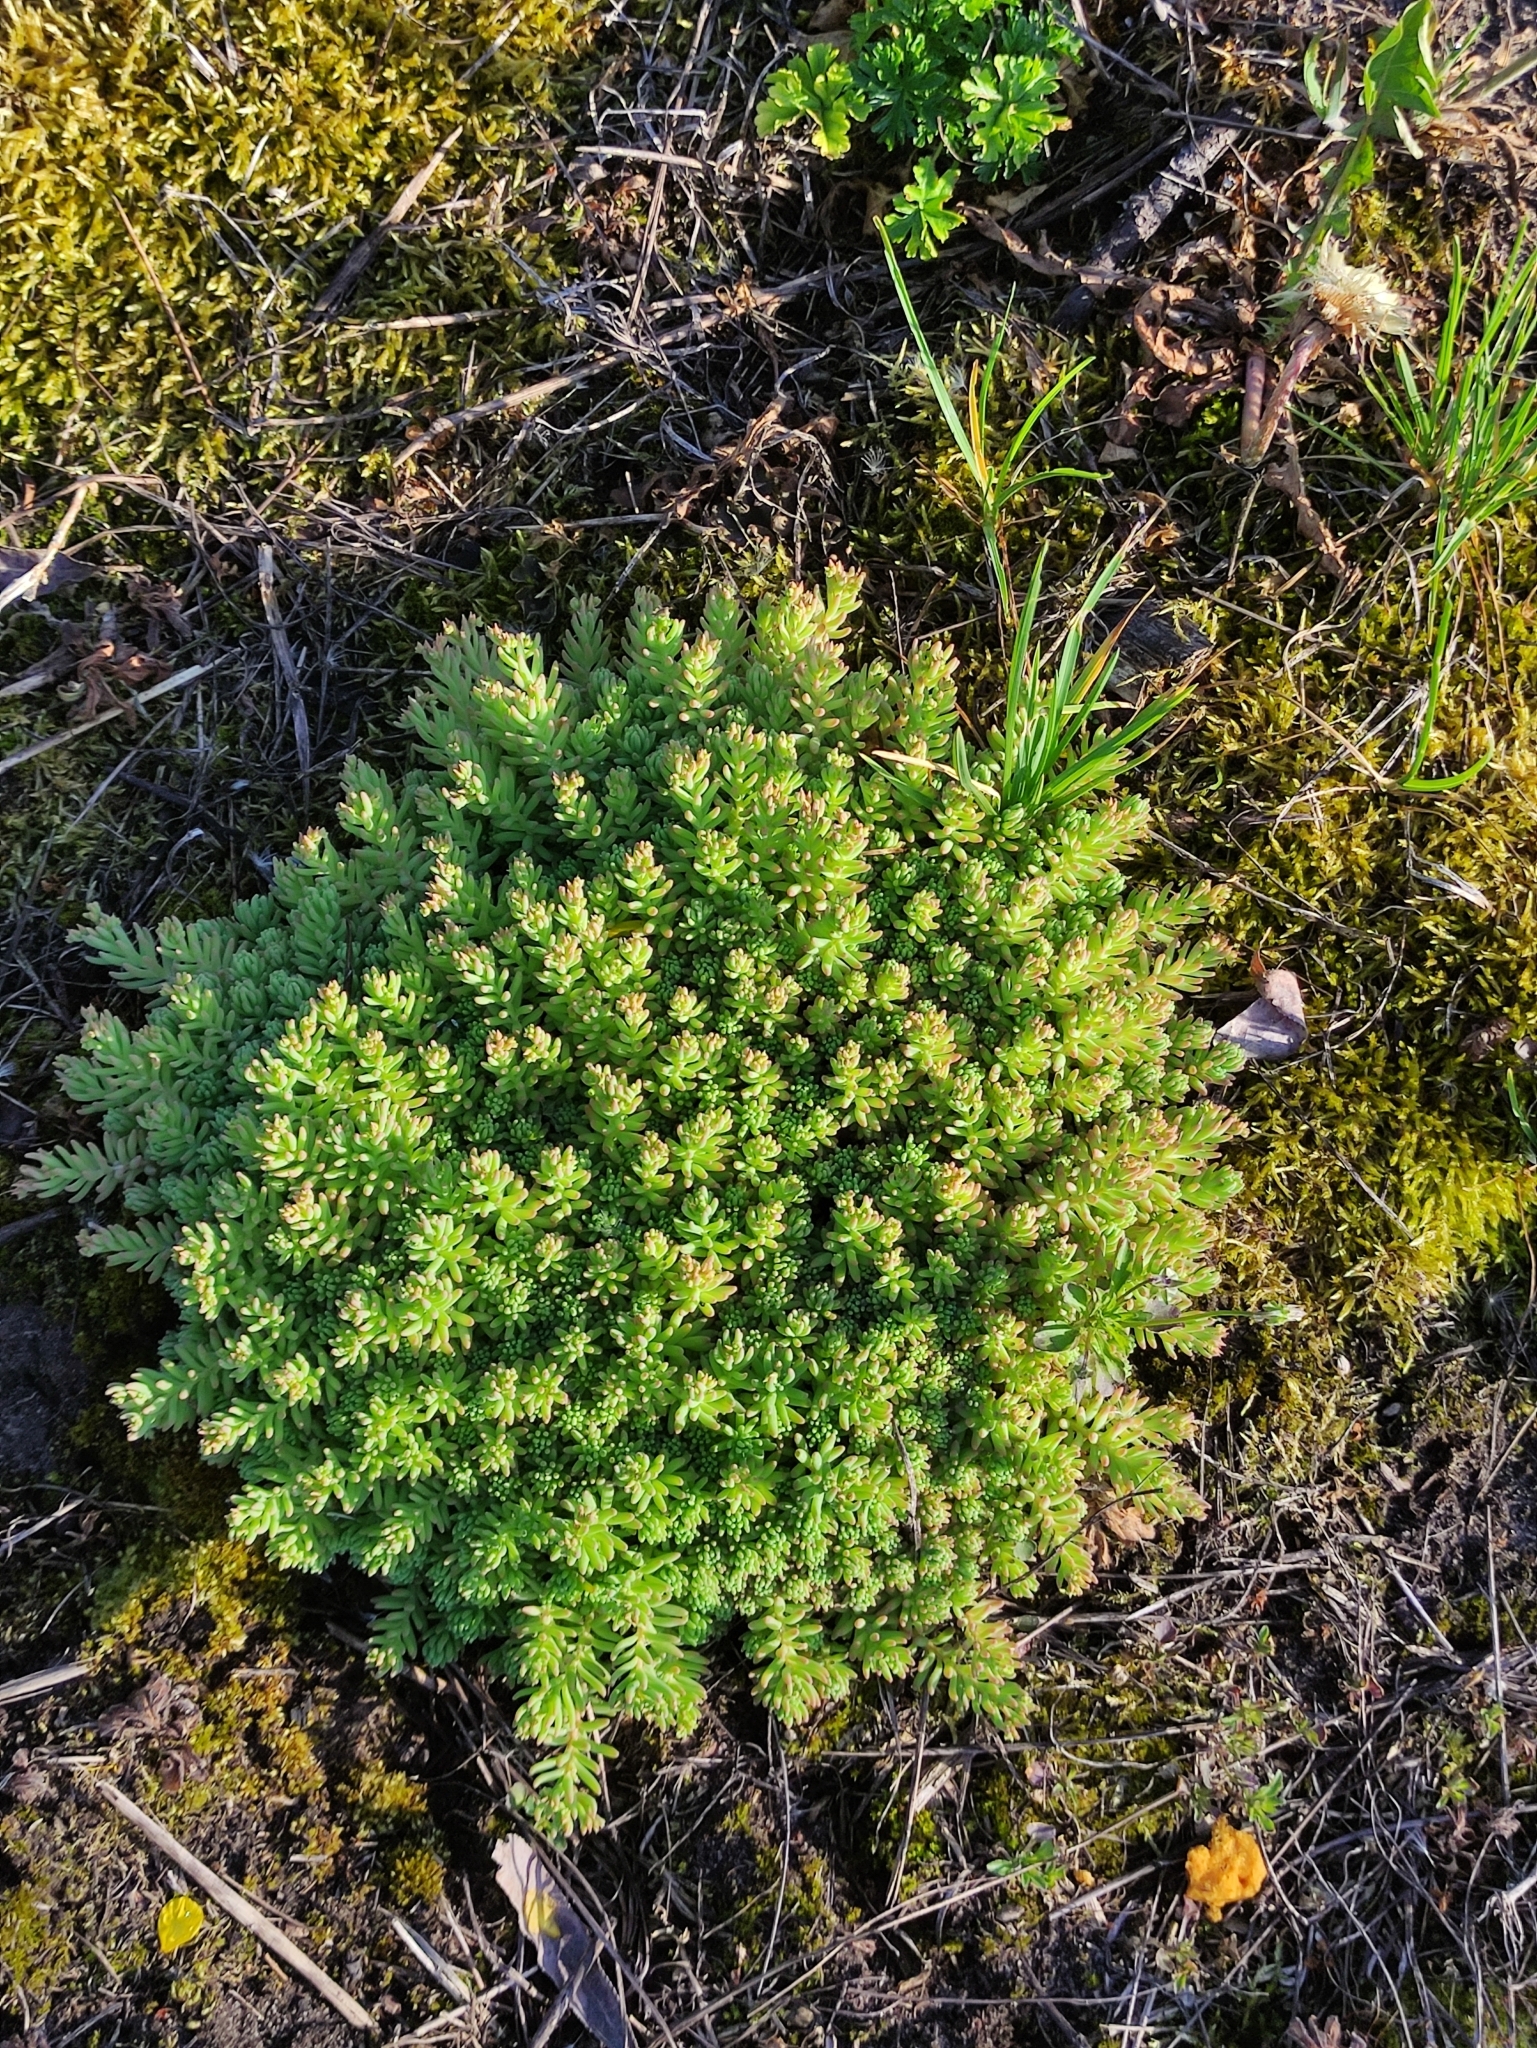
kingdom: Plantae
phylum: Tracheophyta
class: Magnoliopsida
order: Saxifragales
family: Crassulaceae
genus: Sedum
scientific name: Sedum pallidum
